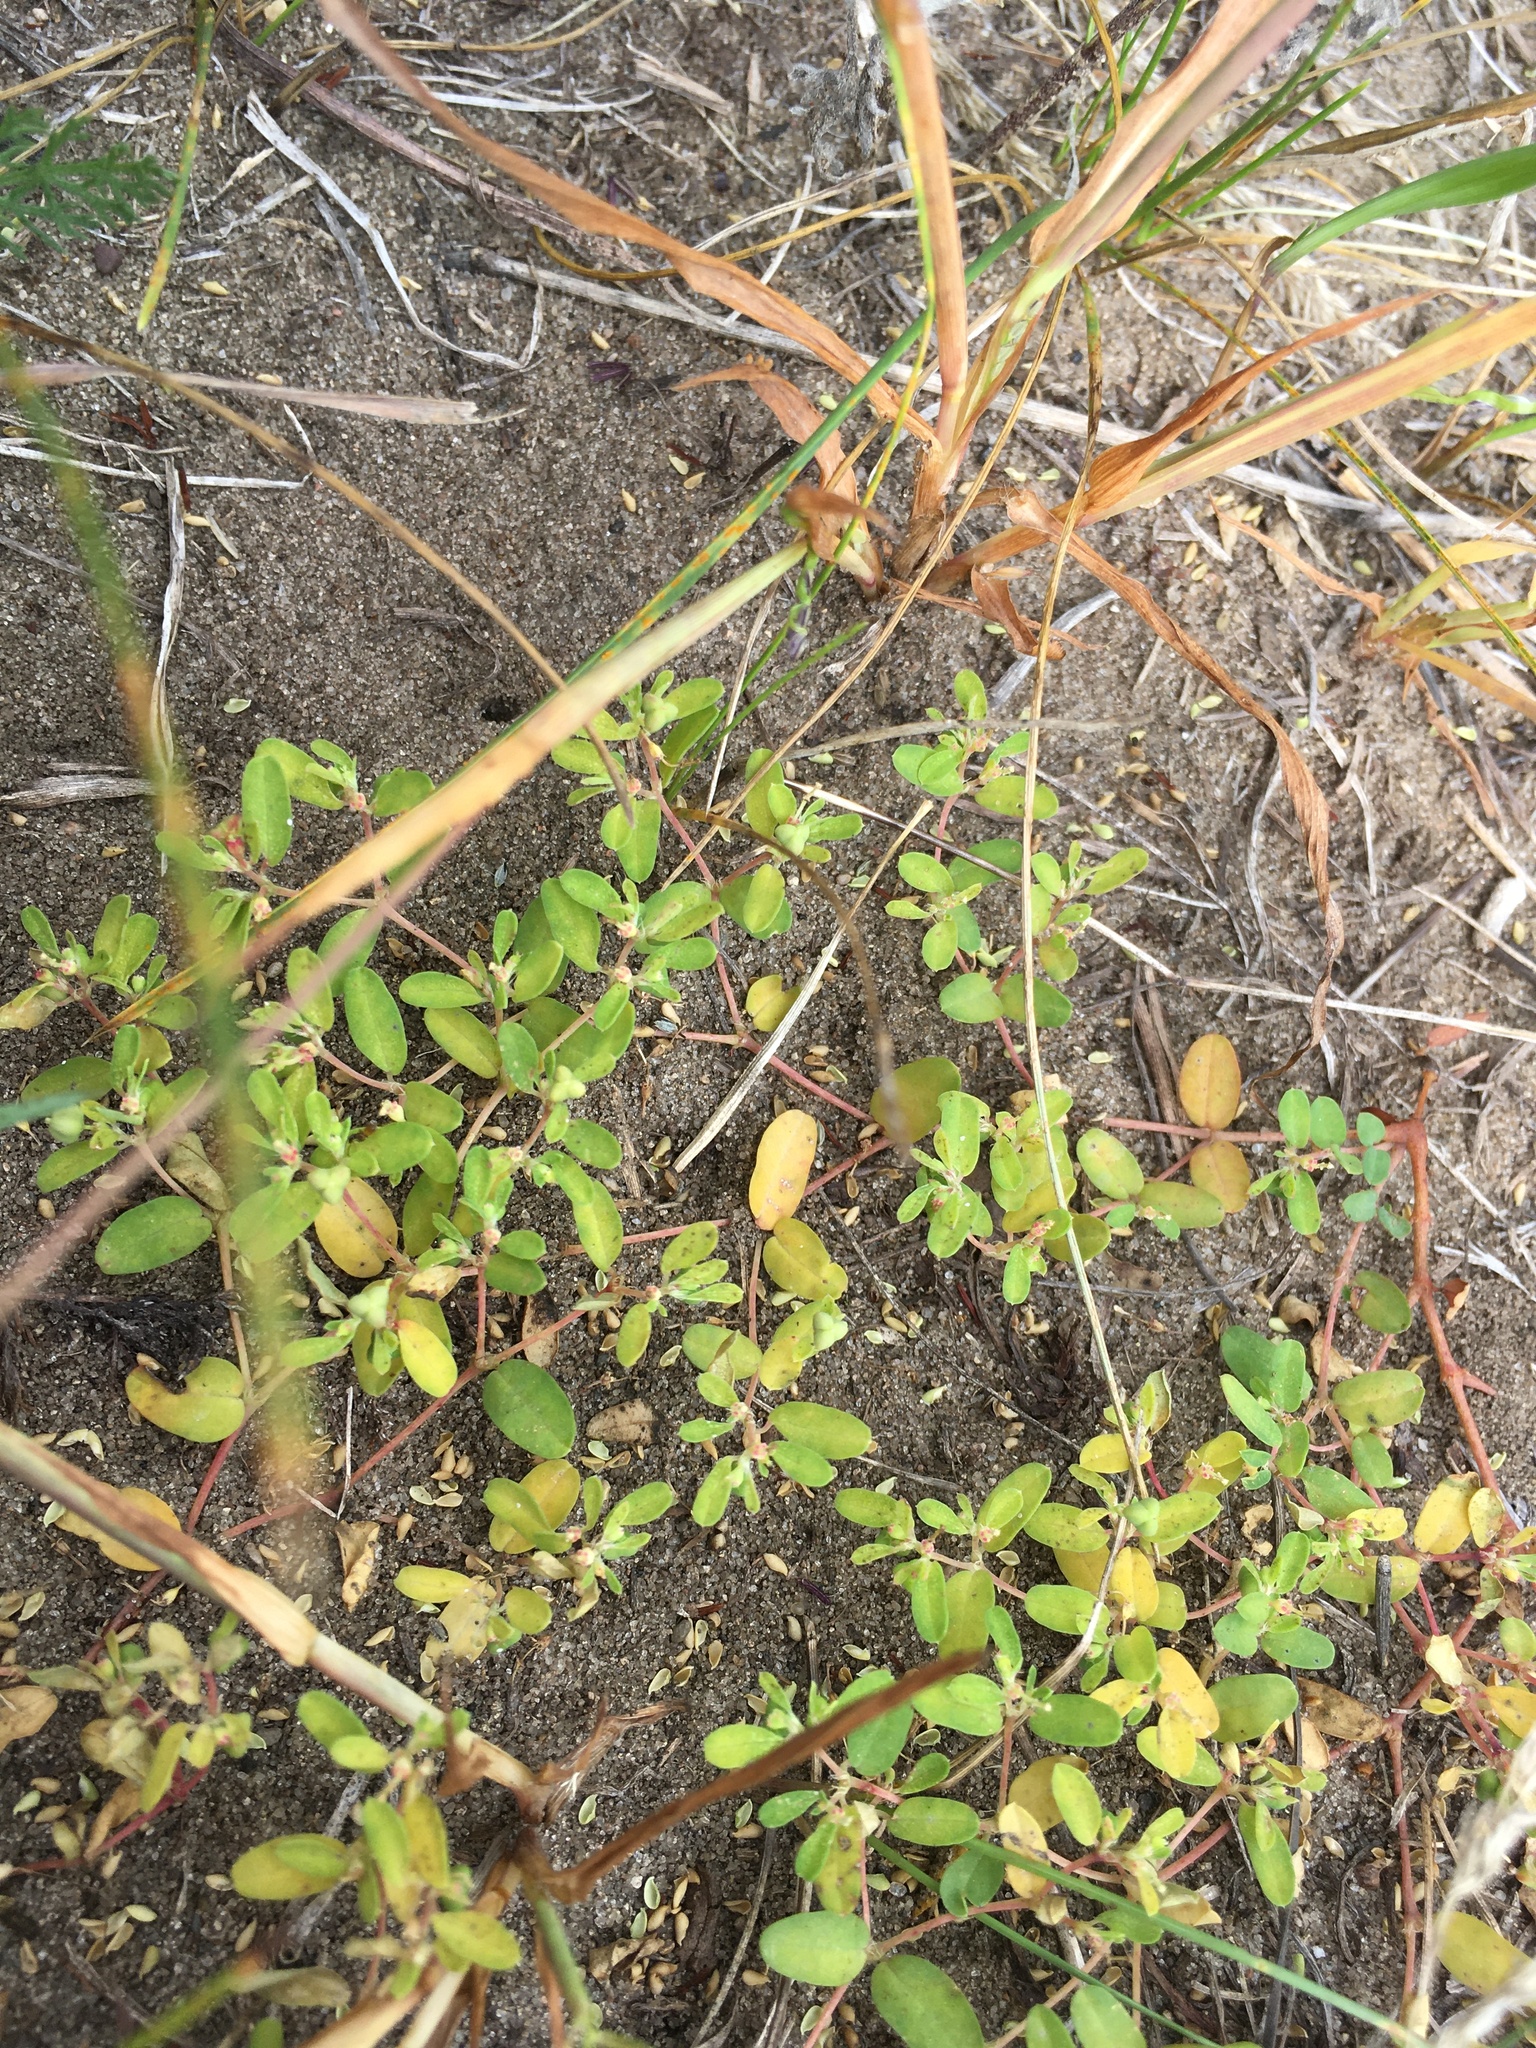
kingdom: Plantae
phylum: Tracheophyta
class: Magnoliopsida
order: Malpighiales
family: Euphorbiaceae
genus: Euphorbia
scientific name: Euphorbia geyeri
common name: Geyer's spurge
